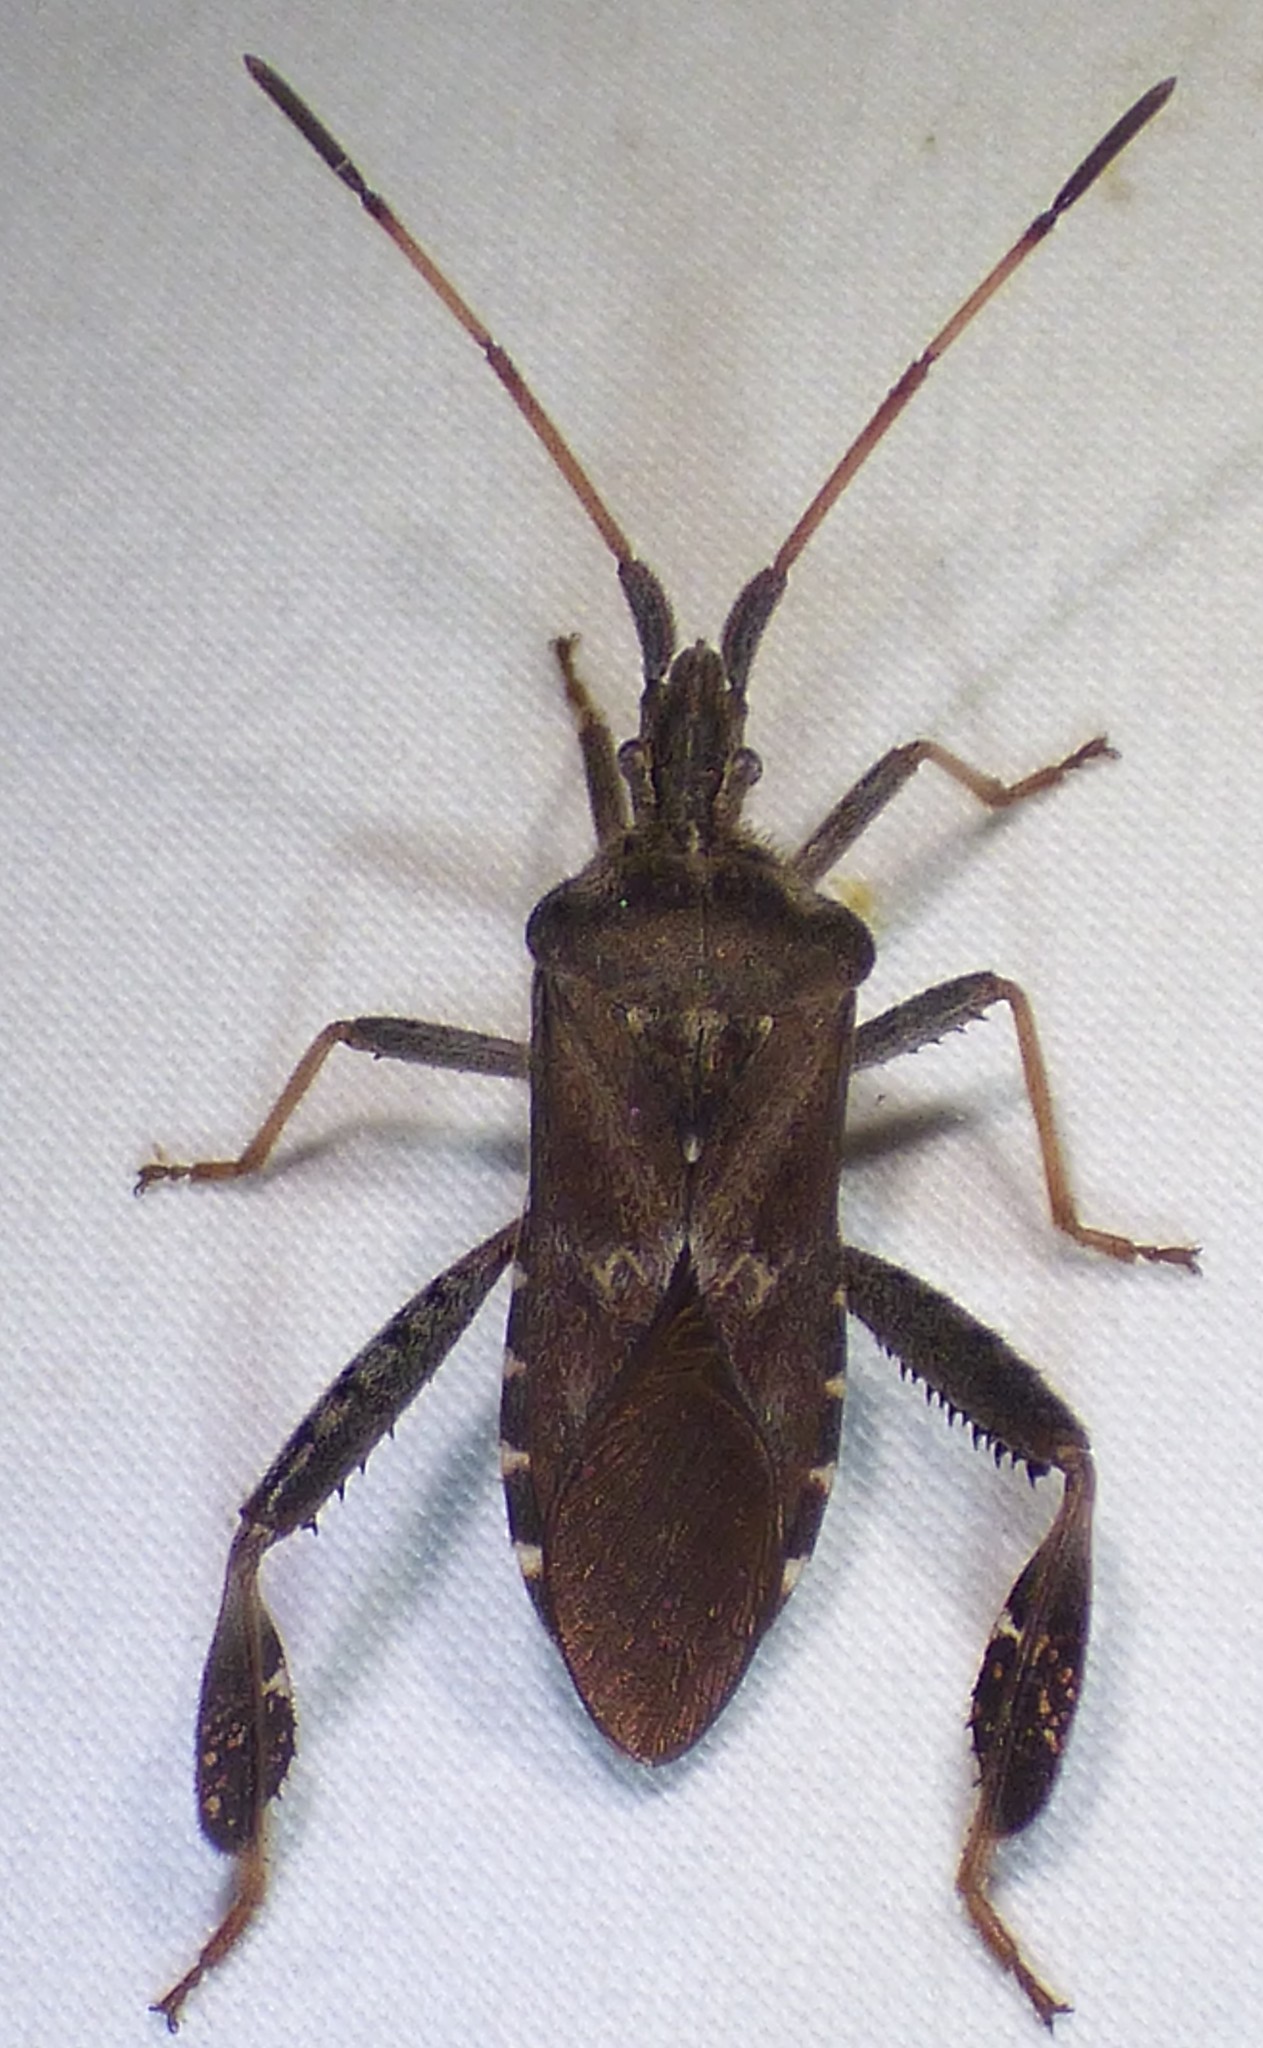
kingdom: Animalia
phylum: Arthropoda
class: Insecta
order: Hemiptera
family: Coreidae
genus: Leptoglossus
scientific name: Leptoglossus corculus
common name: Southern pine seed bug
